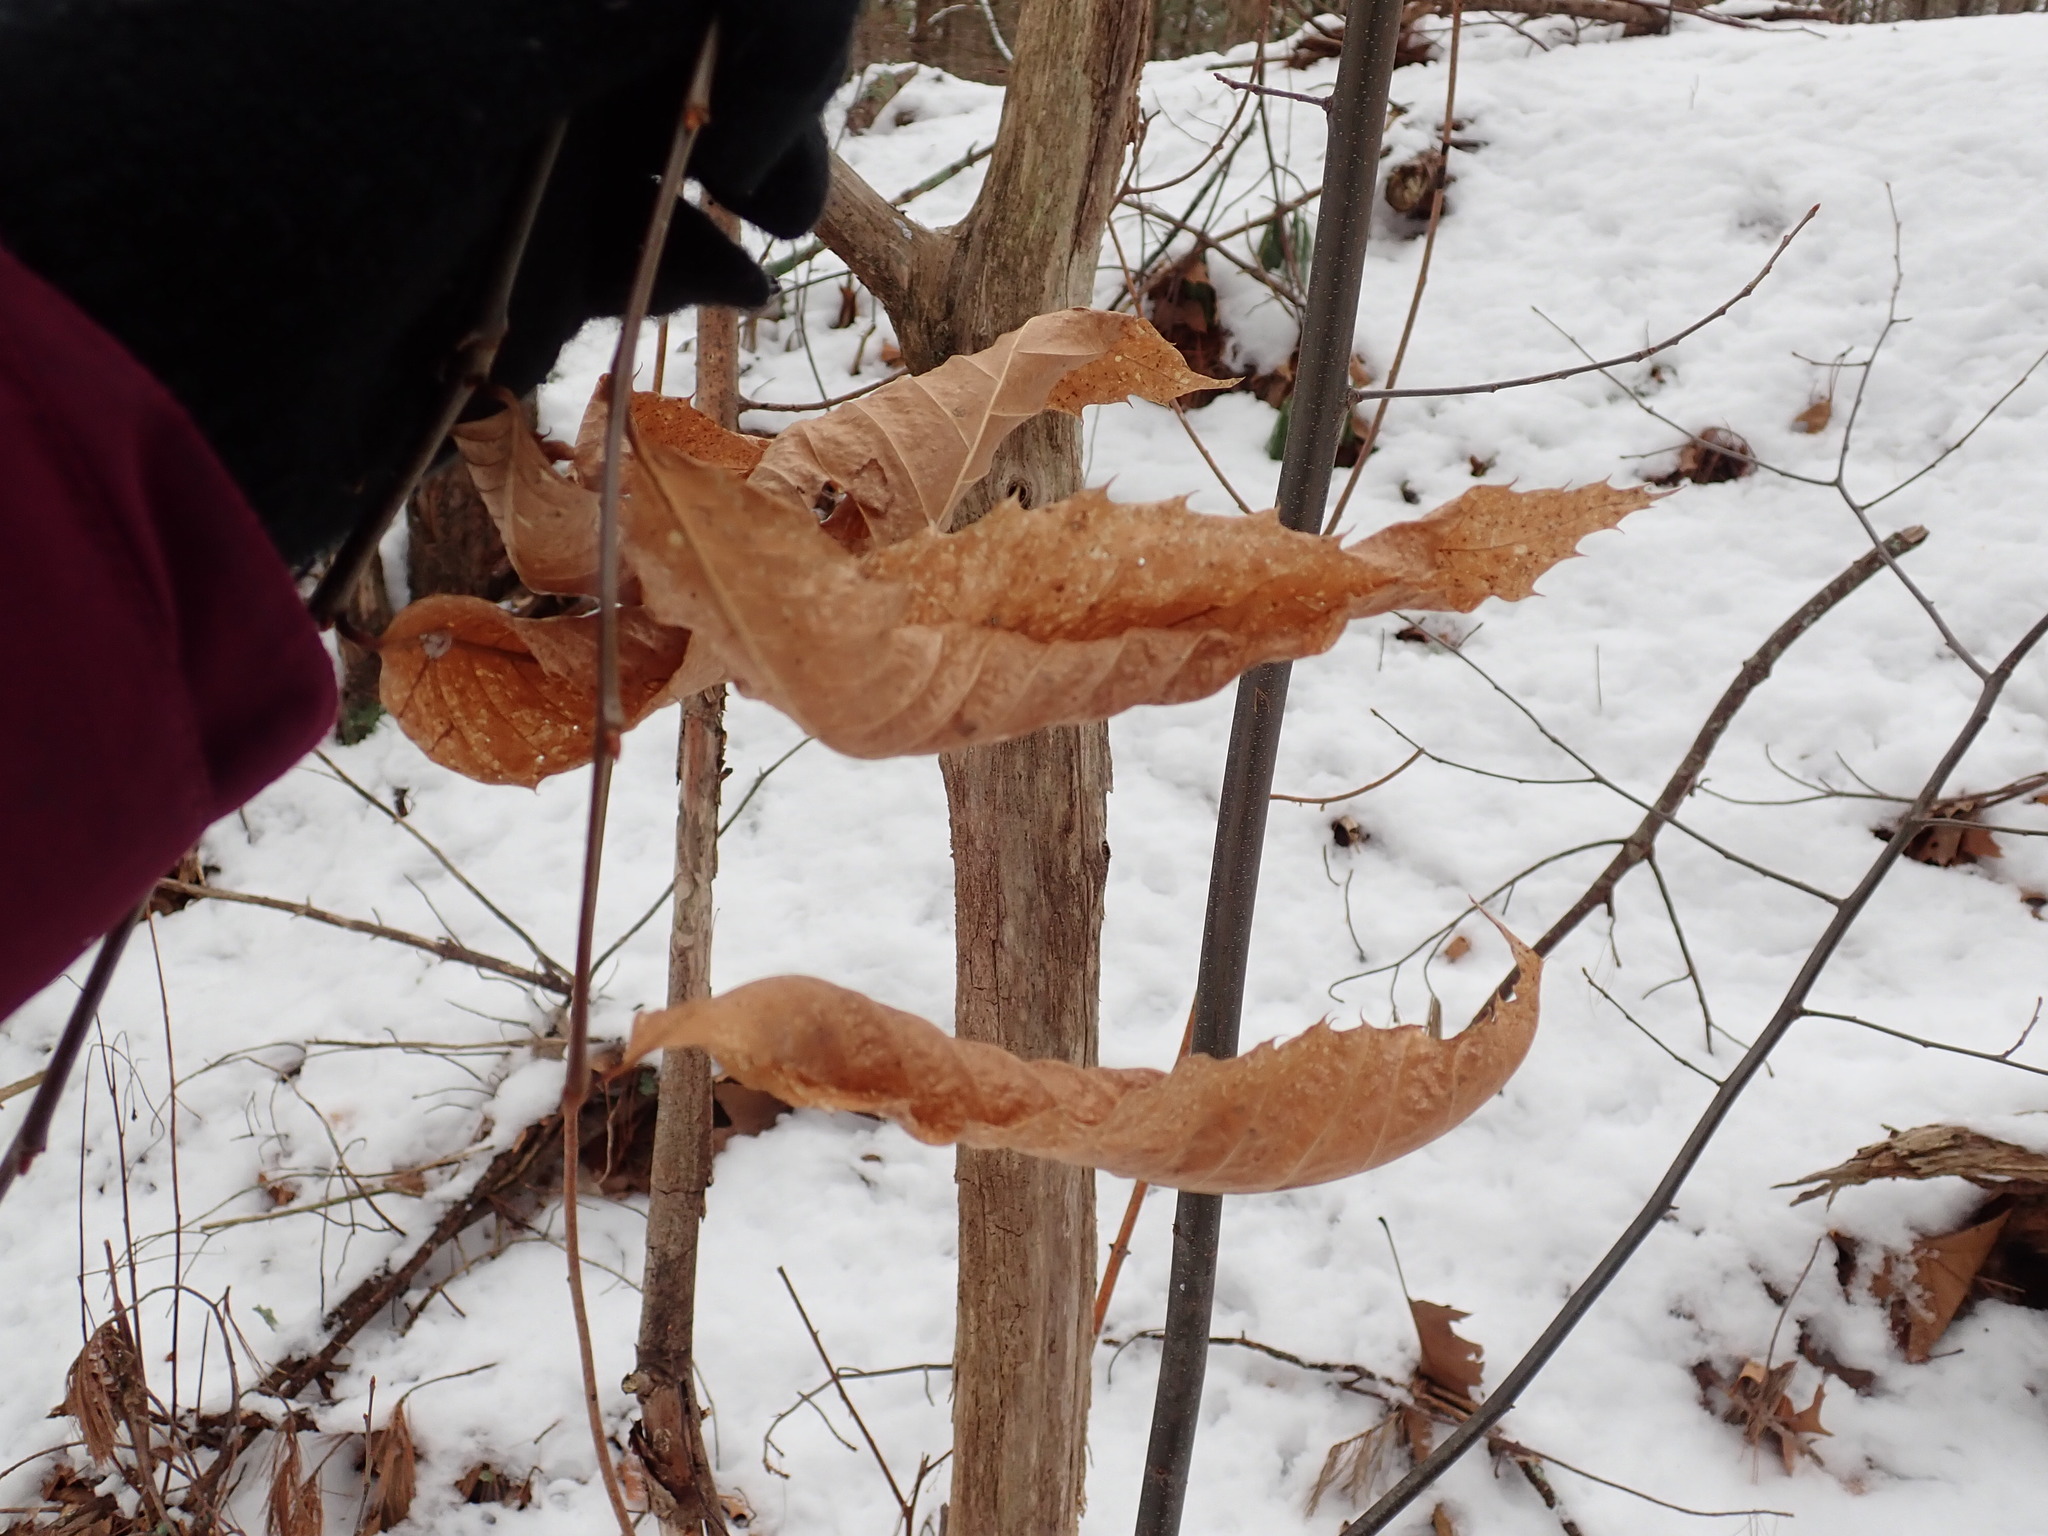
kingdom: Plantae
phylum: Tracheophyta
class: Magnoliopsida
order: Fagales
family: Fagaceae
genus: Castanea
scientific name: Castanea dentata
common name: American chestnut
